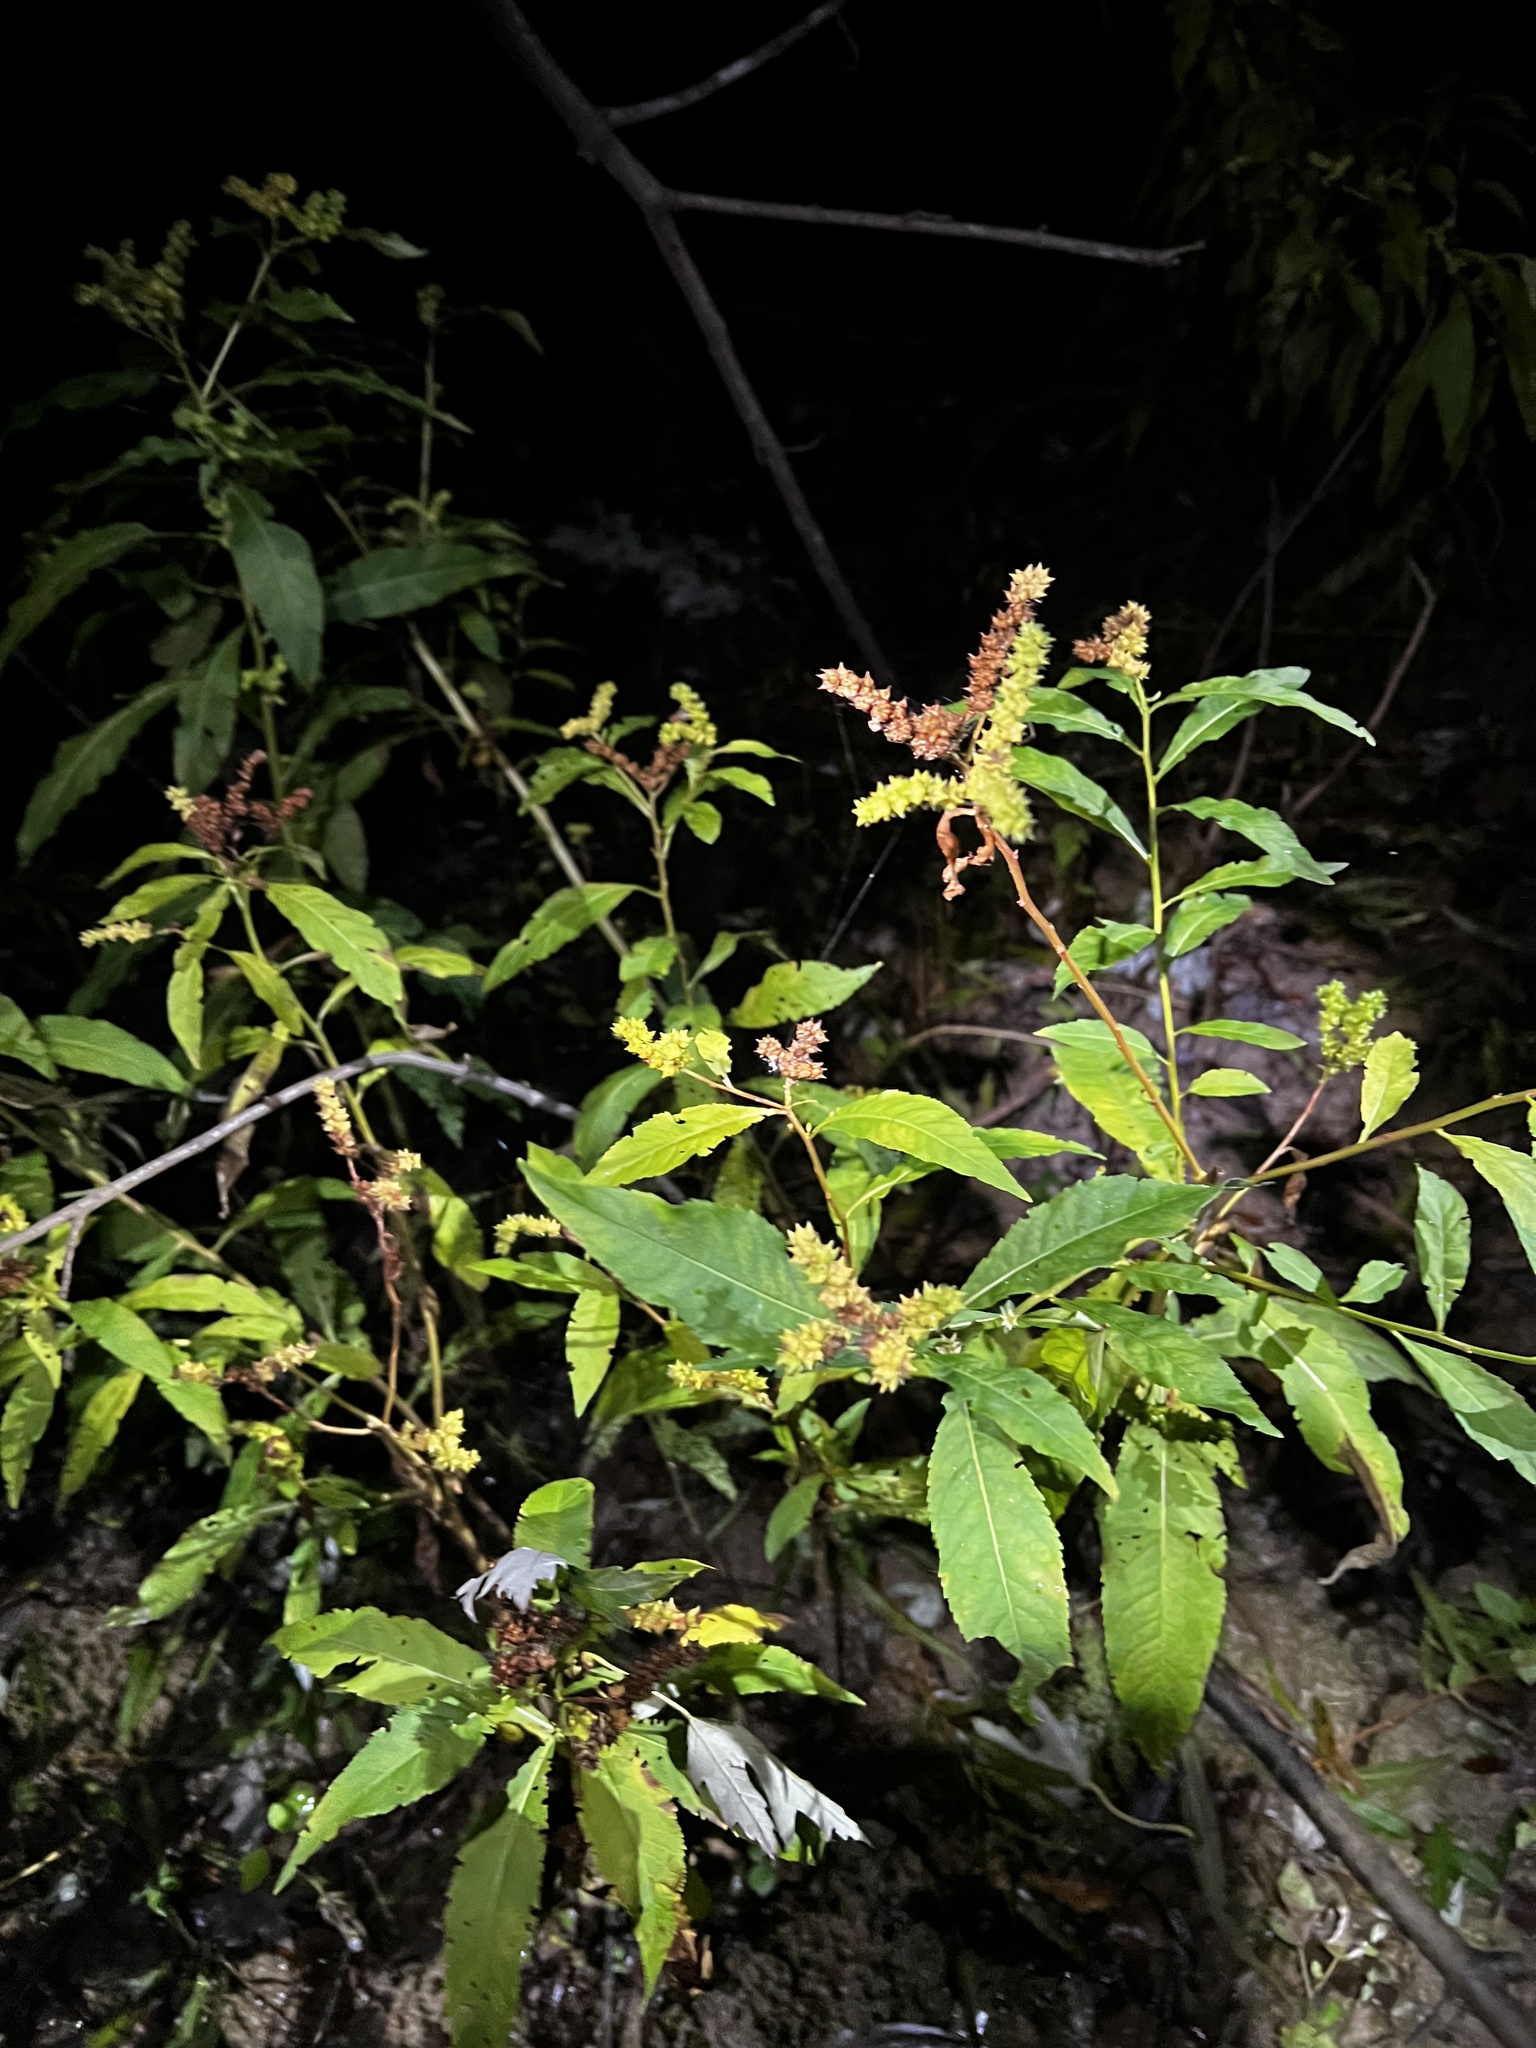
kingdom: Plantae
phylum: Tracheophyta
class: Magnoliopsida
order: Saxifragales
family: Penthoraceae
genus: Penthorum
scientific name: Penthorum sedoides
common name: Ditch stonecrop
